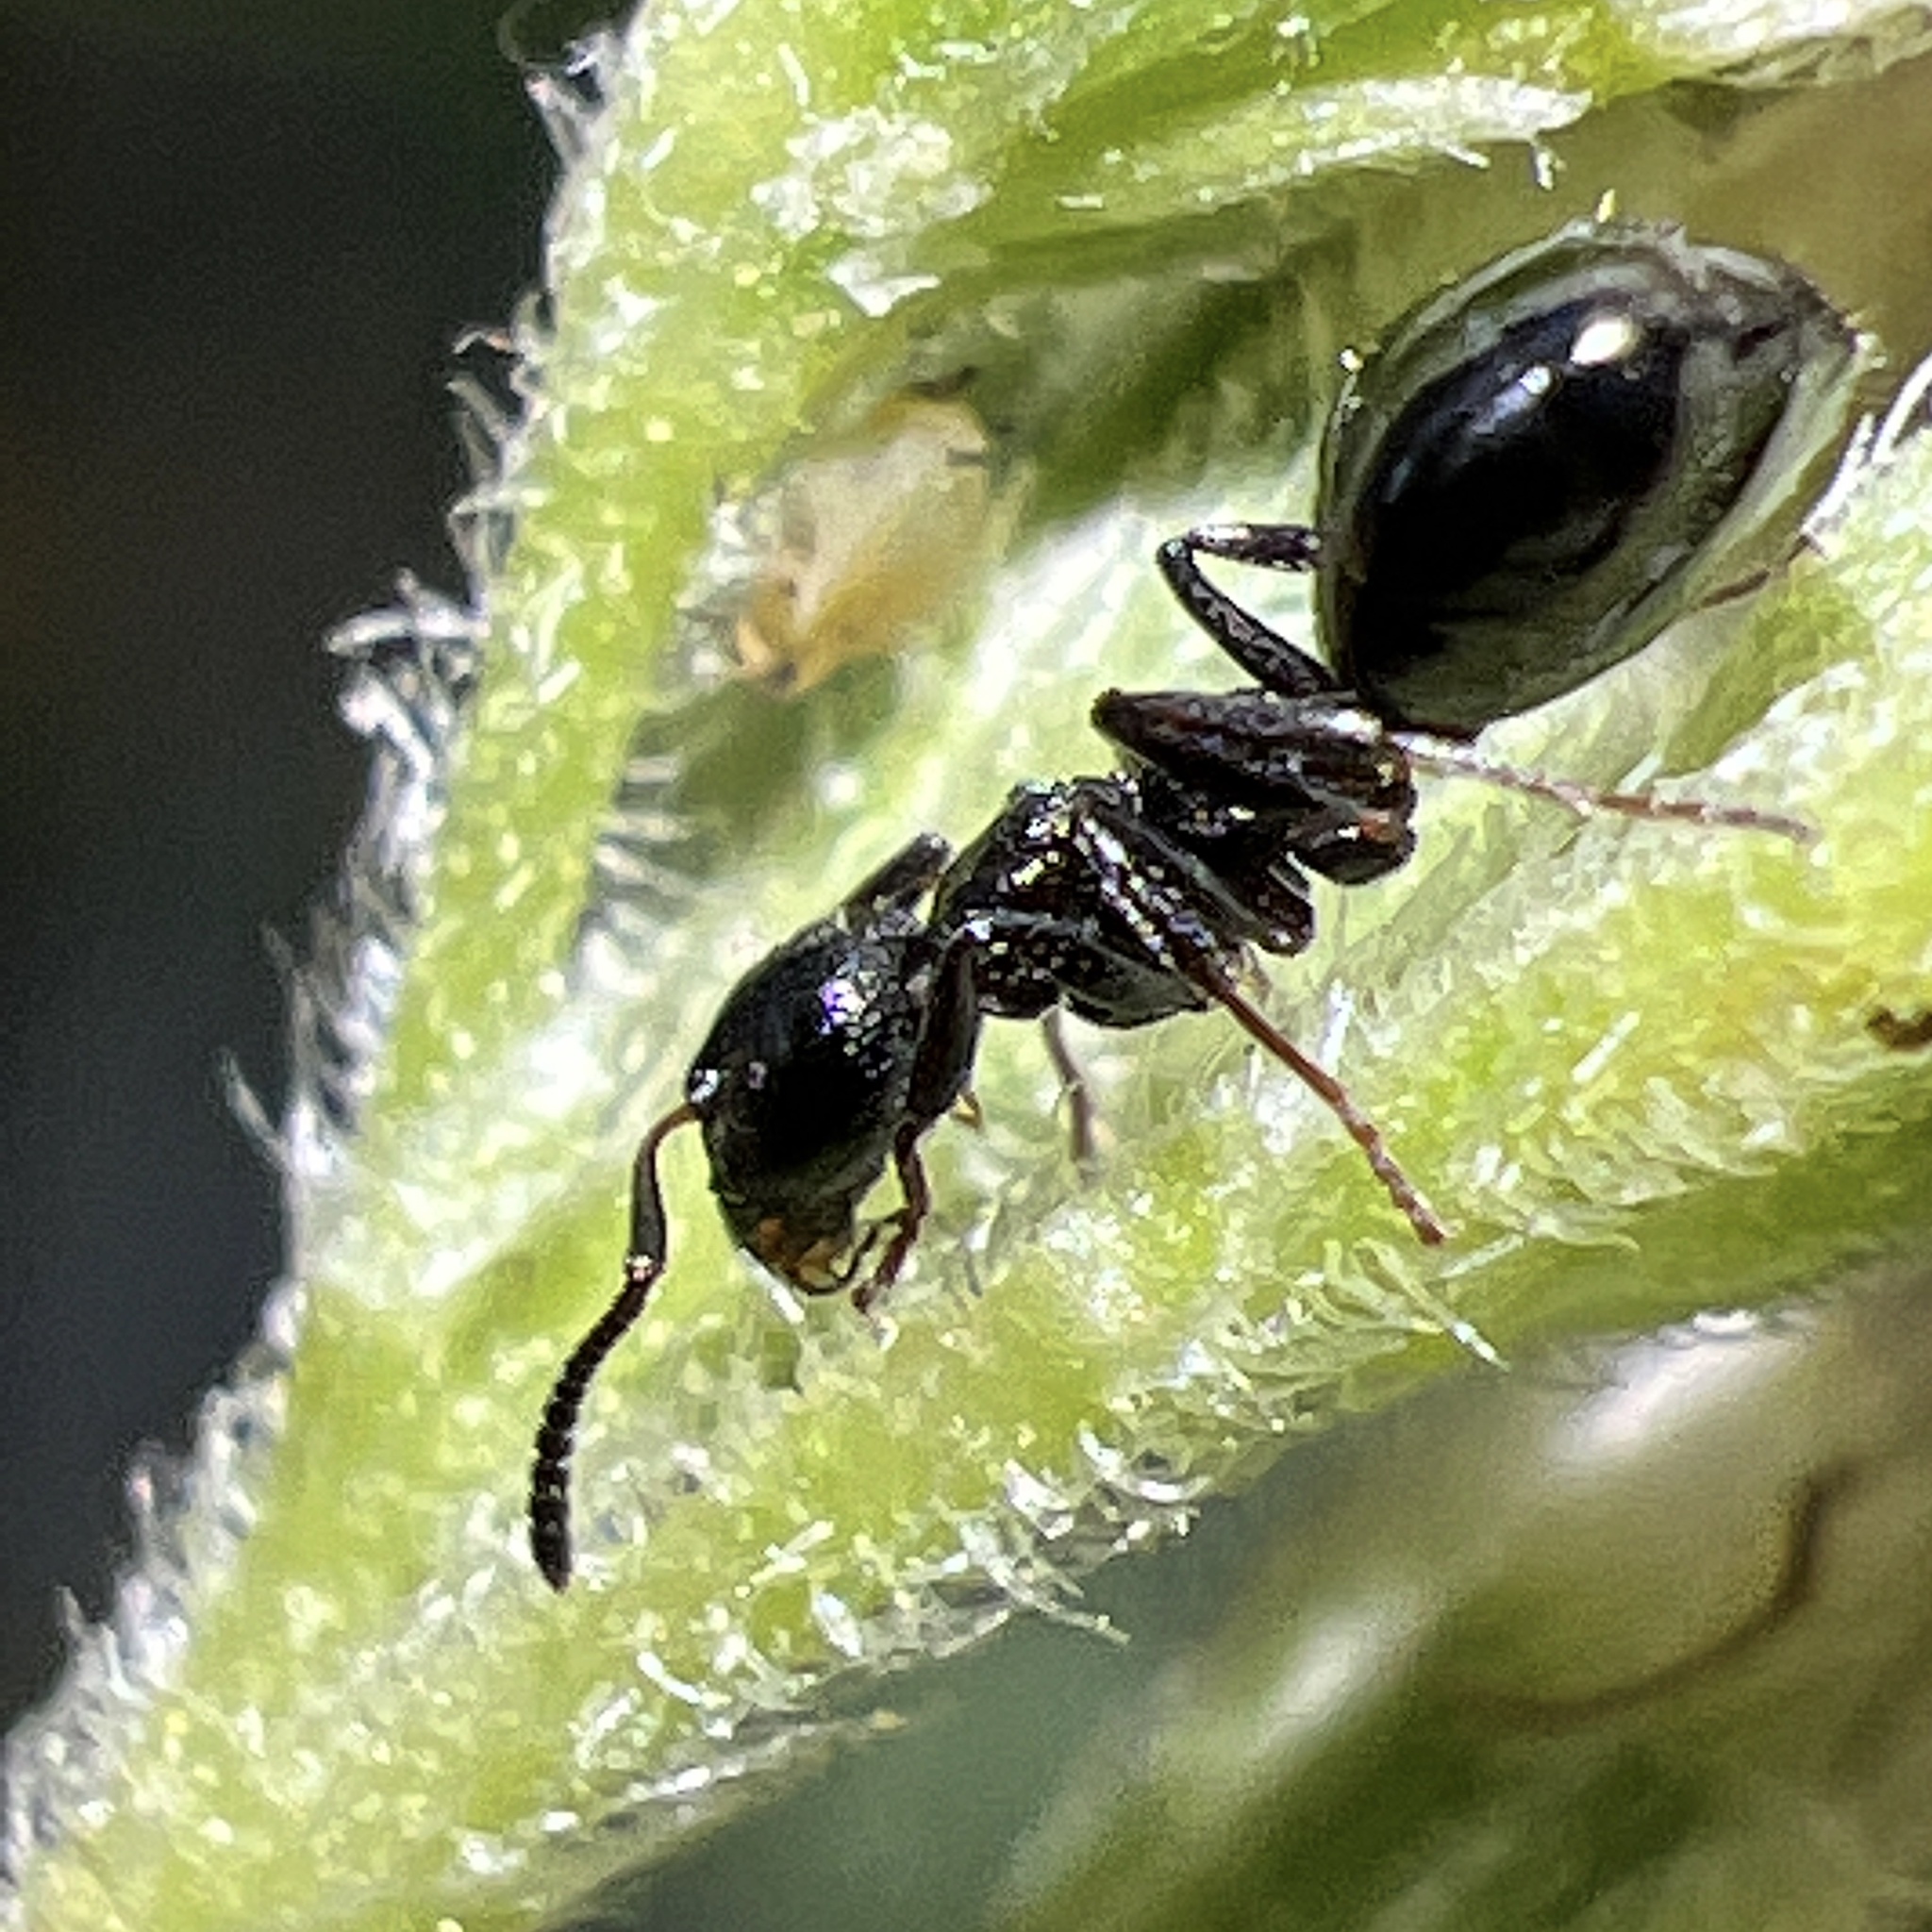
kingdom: Animalia
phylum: Arthropoda
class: Insecta
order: Hymenoptera
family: Formicidae
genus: Dolichoderus
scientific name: Dolichoderus taschenbergi
